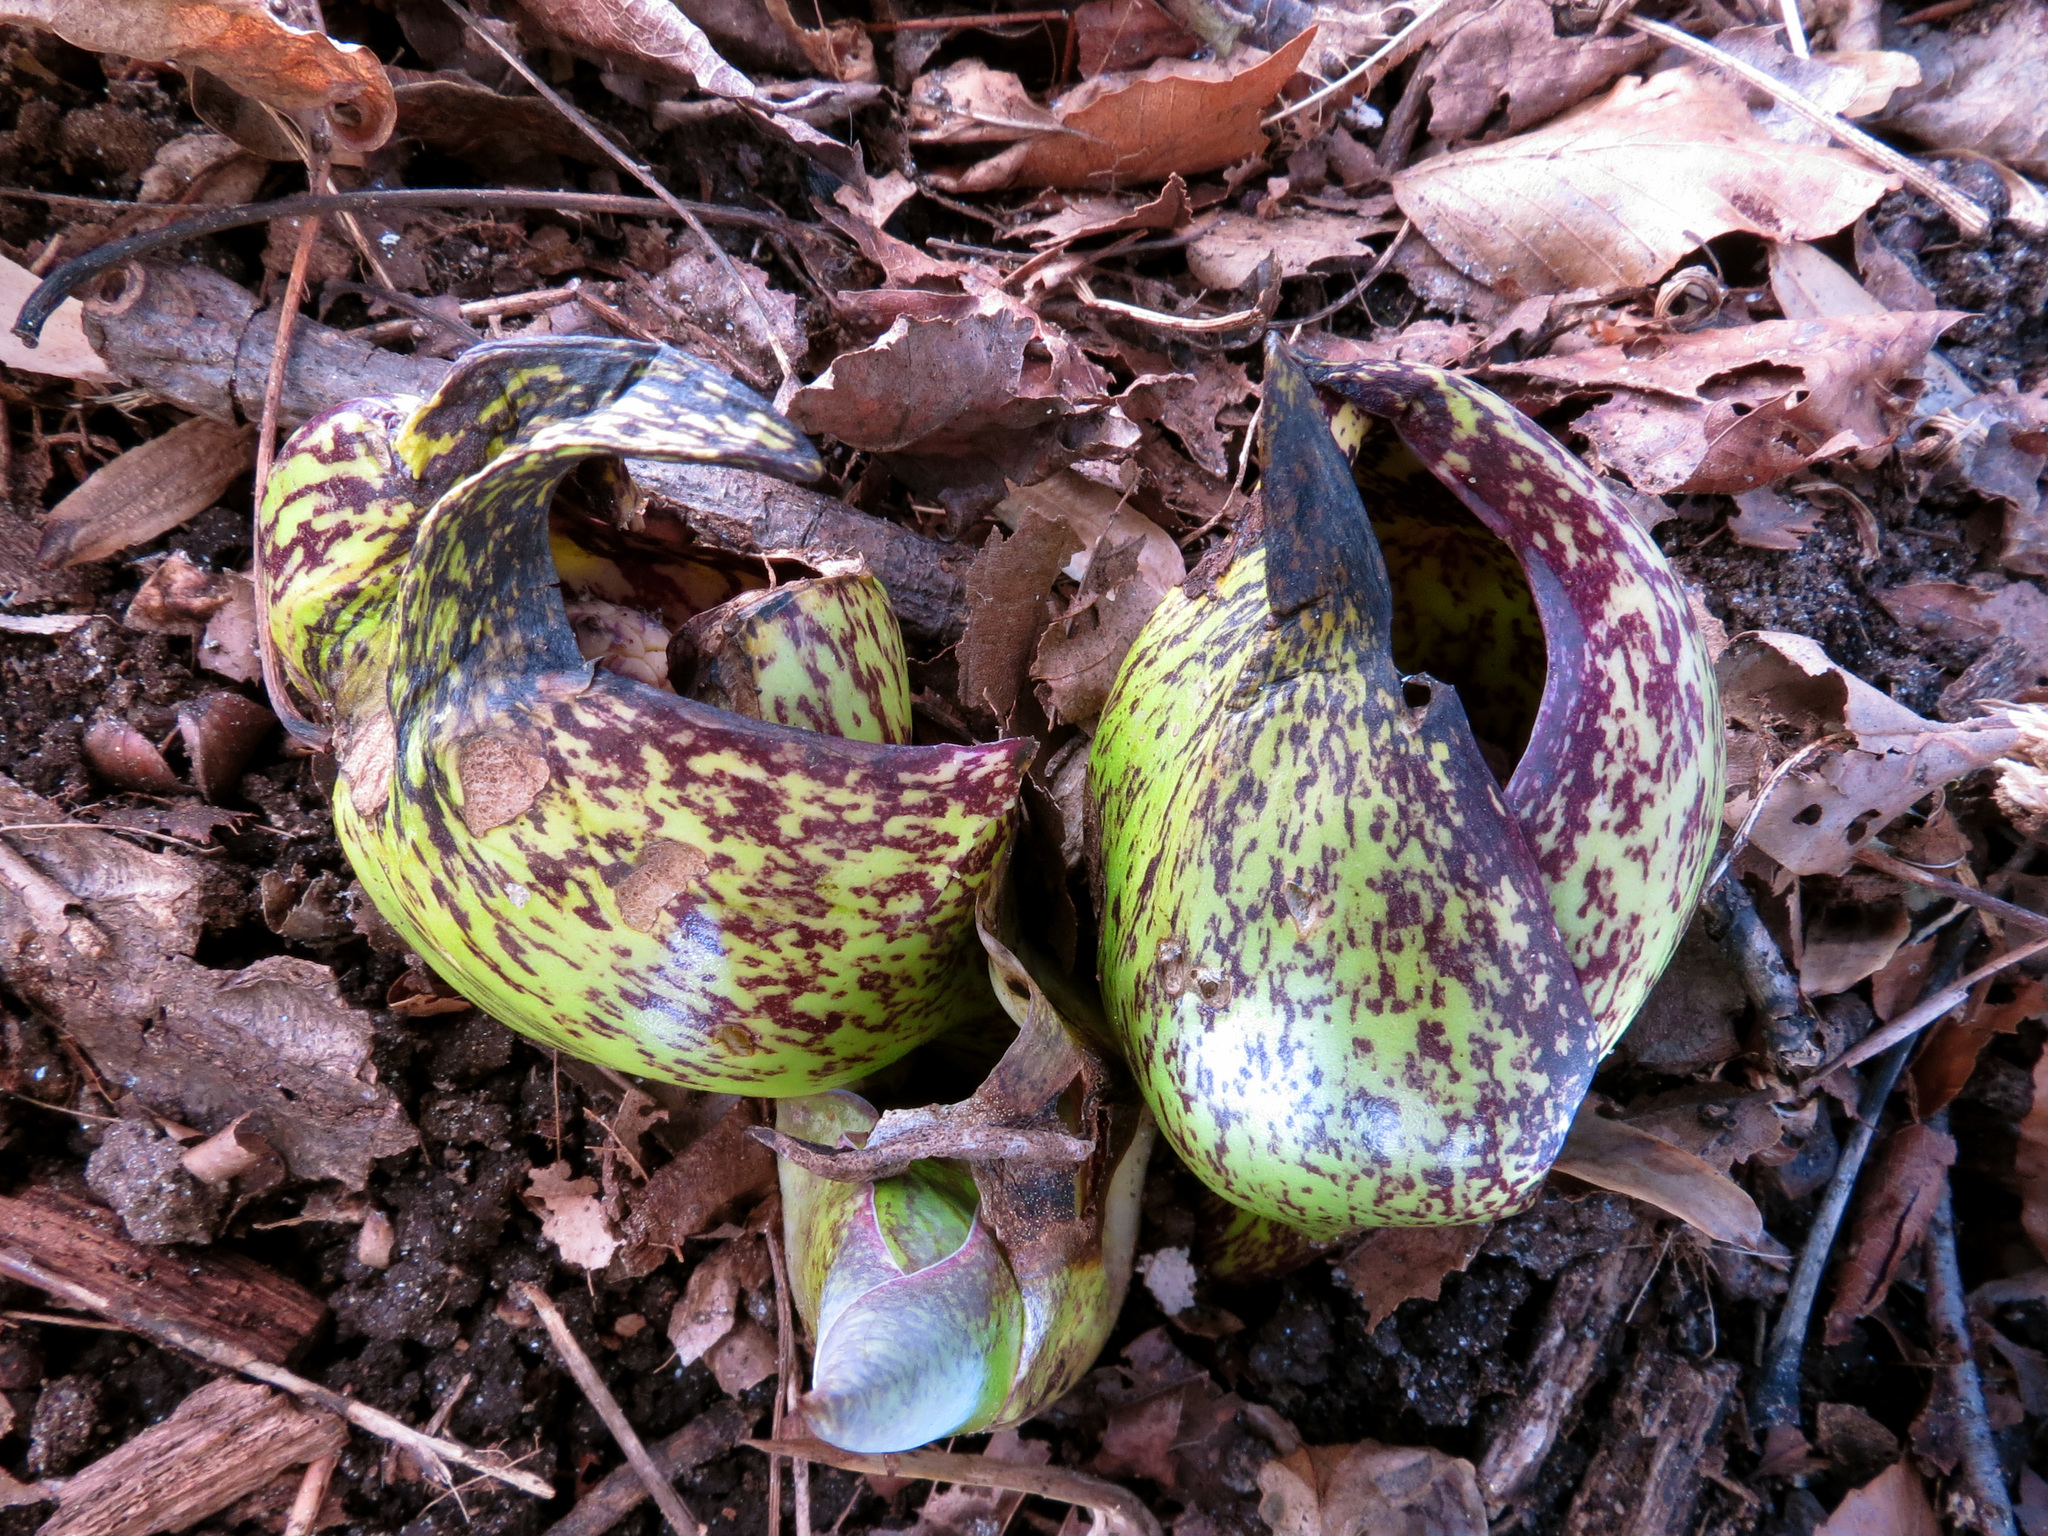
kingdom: Plantae
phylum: Tracheophyta
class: Liliopsida
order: Alismatales
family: Araceae
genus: Symplocarpus
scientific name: Symplocarpus foetidus
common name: Eastern skunk cabbage
